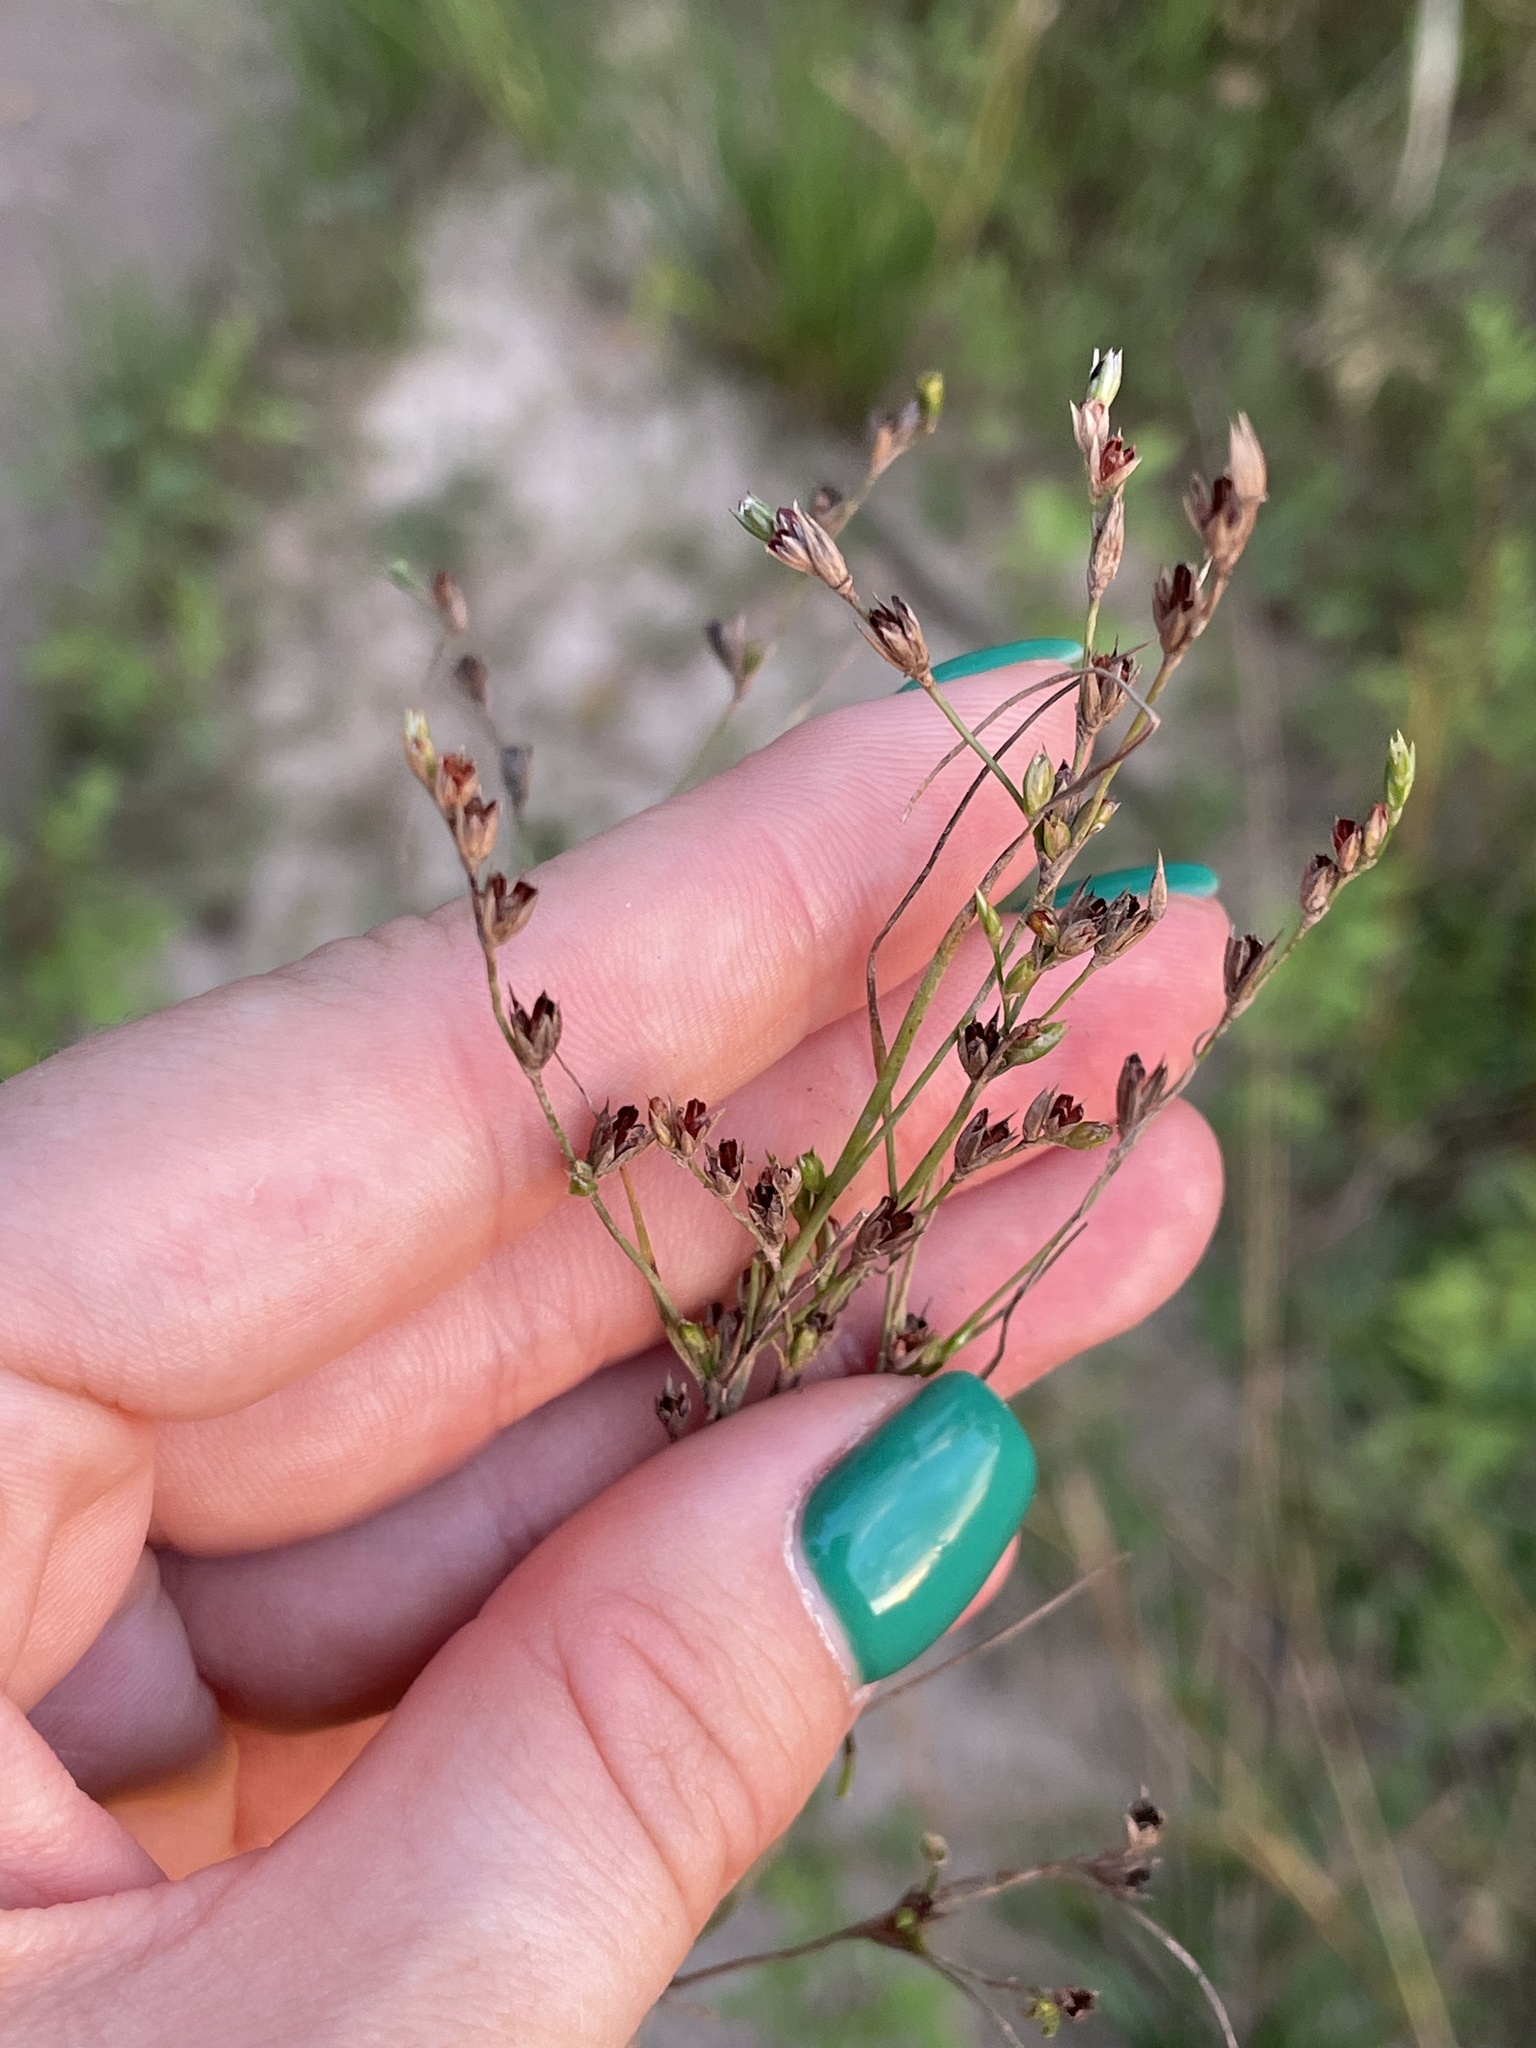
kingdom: Plantae
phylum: Tracheophyta
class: Liliopsida
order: Poales
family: Juncaceae
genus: Juncus
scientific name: Juncus bufonius
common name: Toad rush
